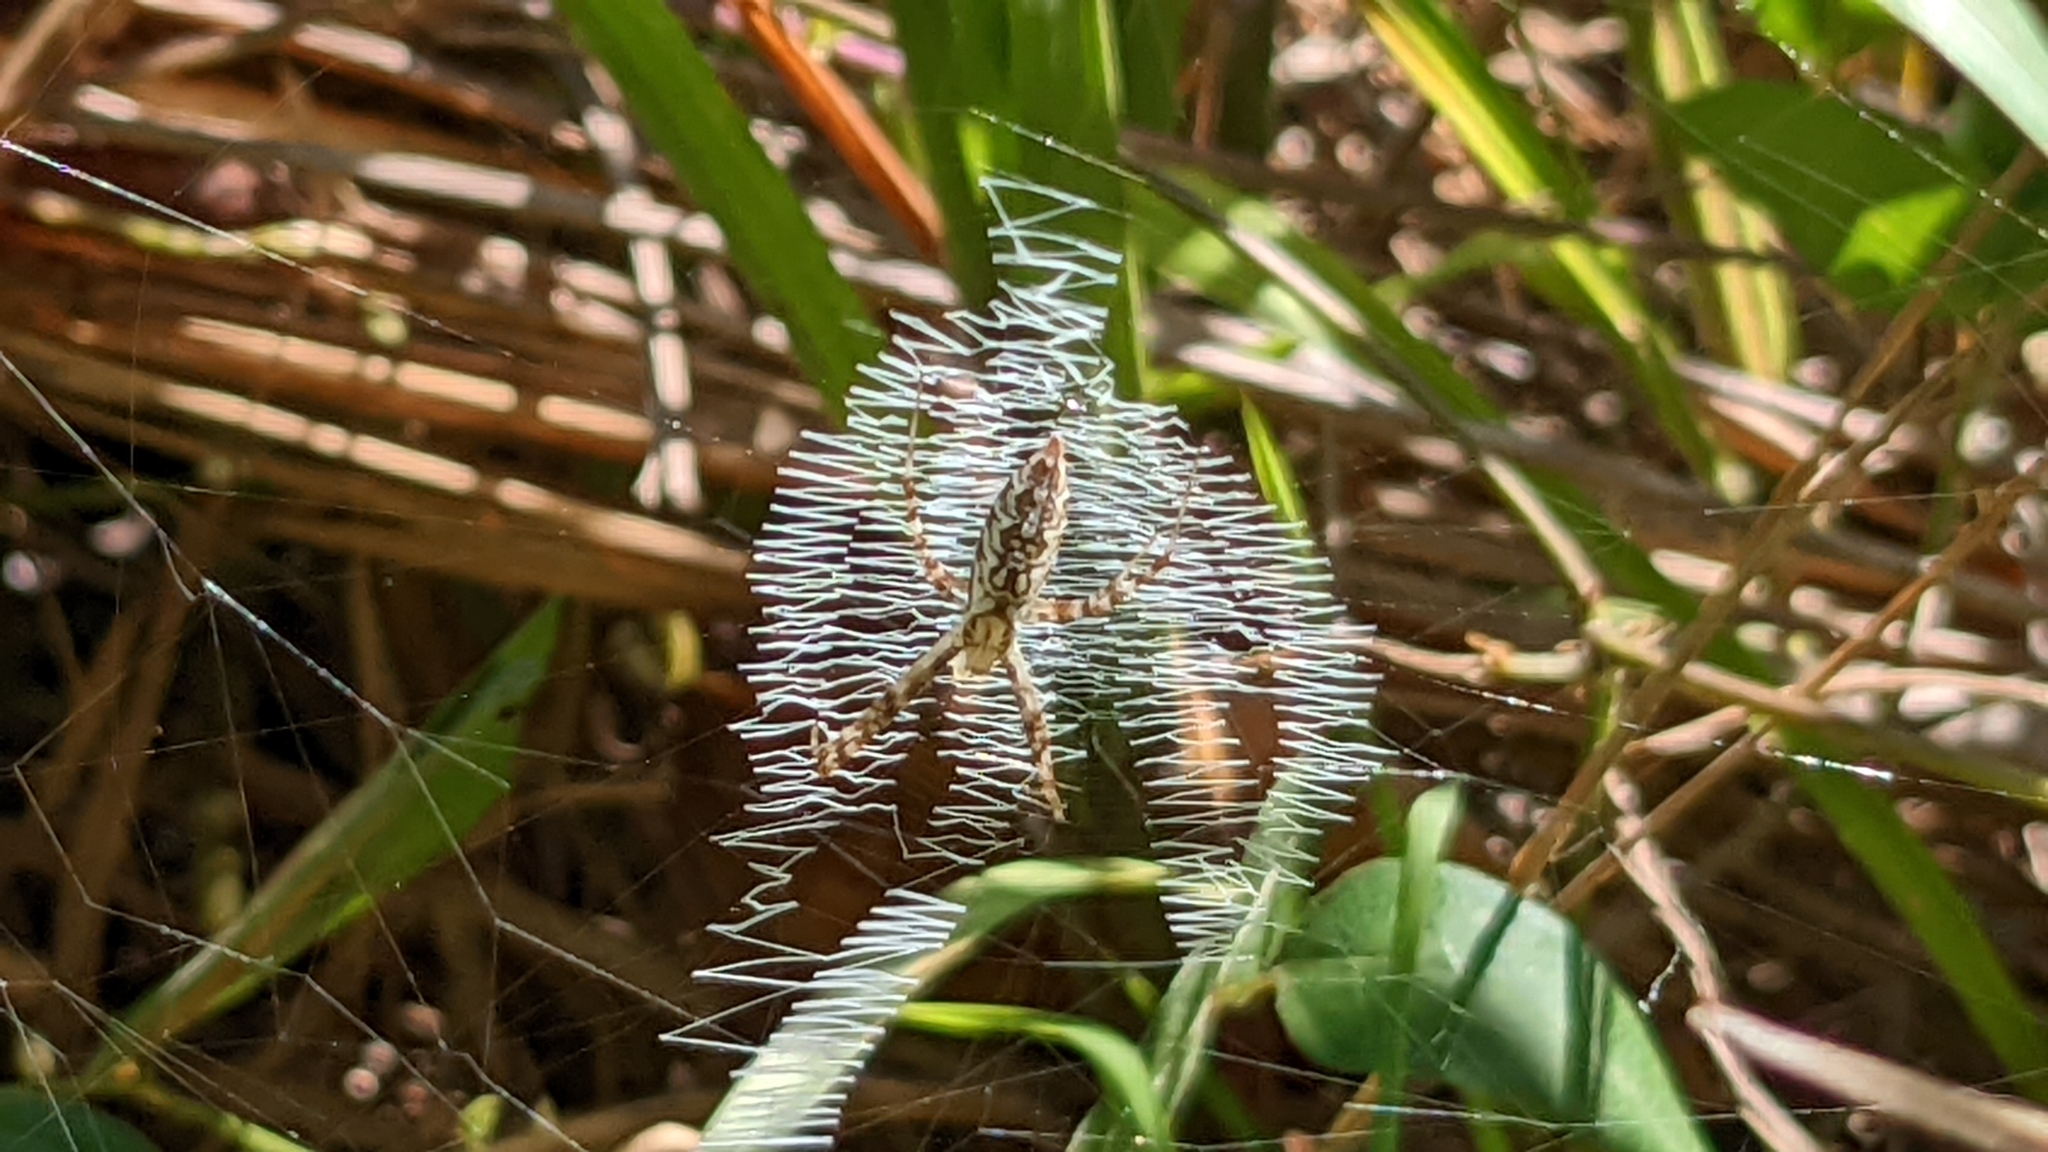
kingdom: Animalia
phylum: Arthropoda
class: Arachnida
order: Araneae
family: Araneidae
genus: Argiope
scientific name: Argiope aurantia
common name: Orb weavers
